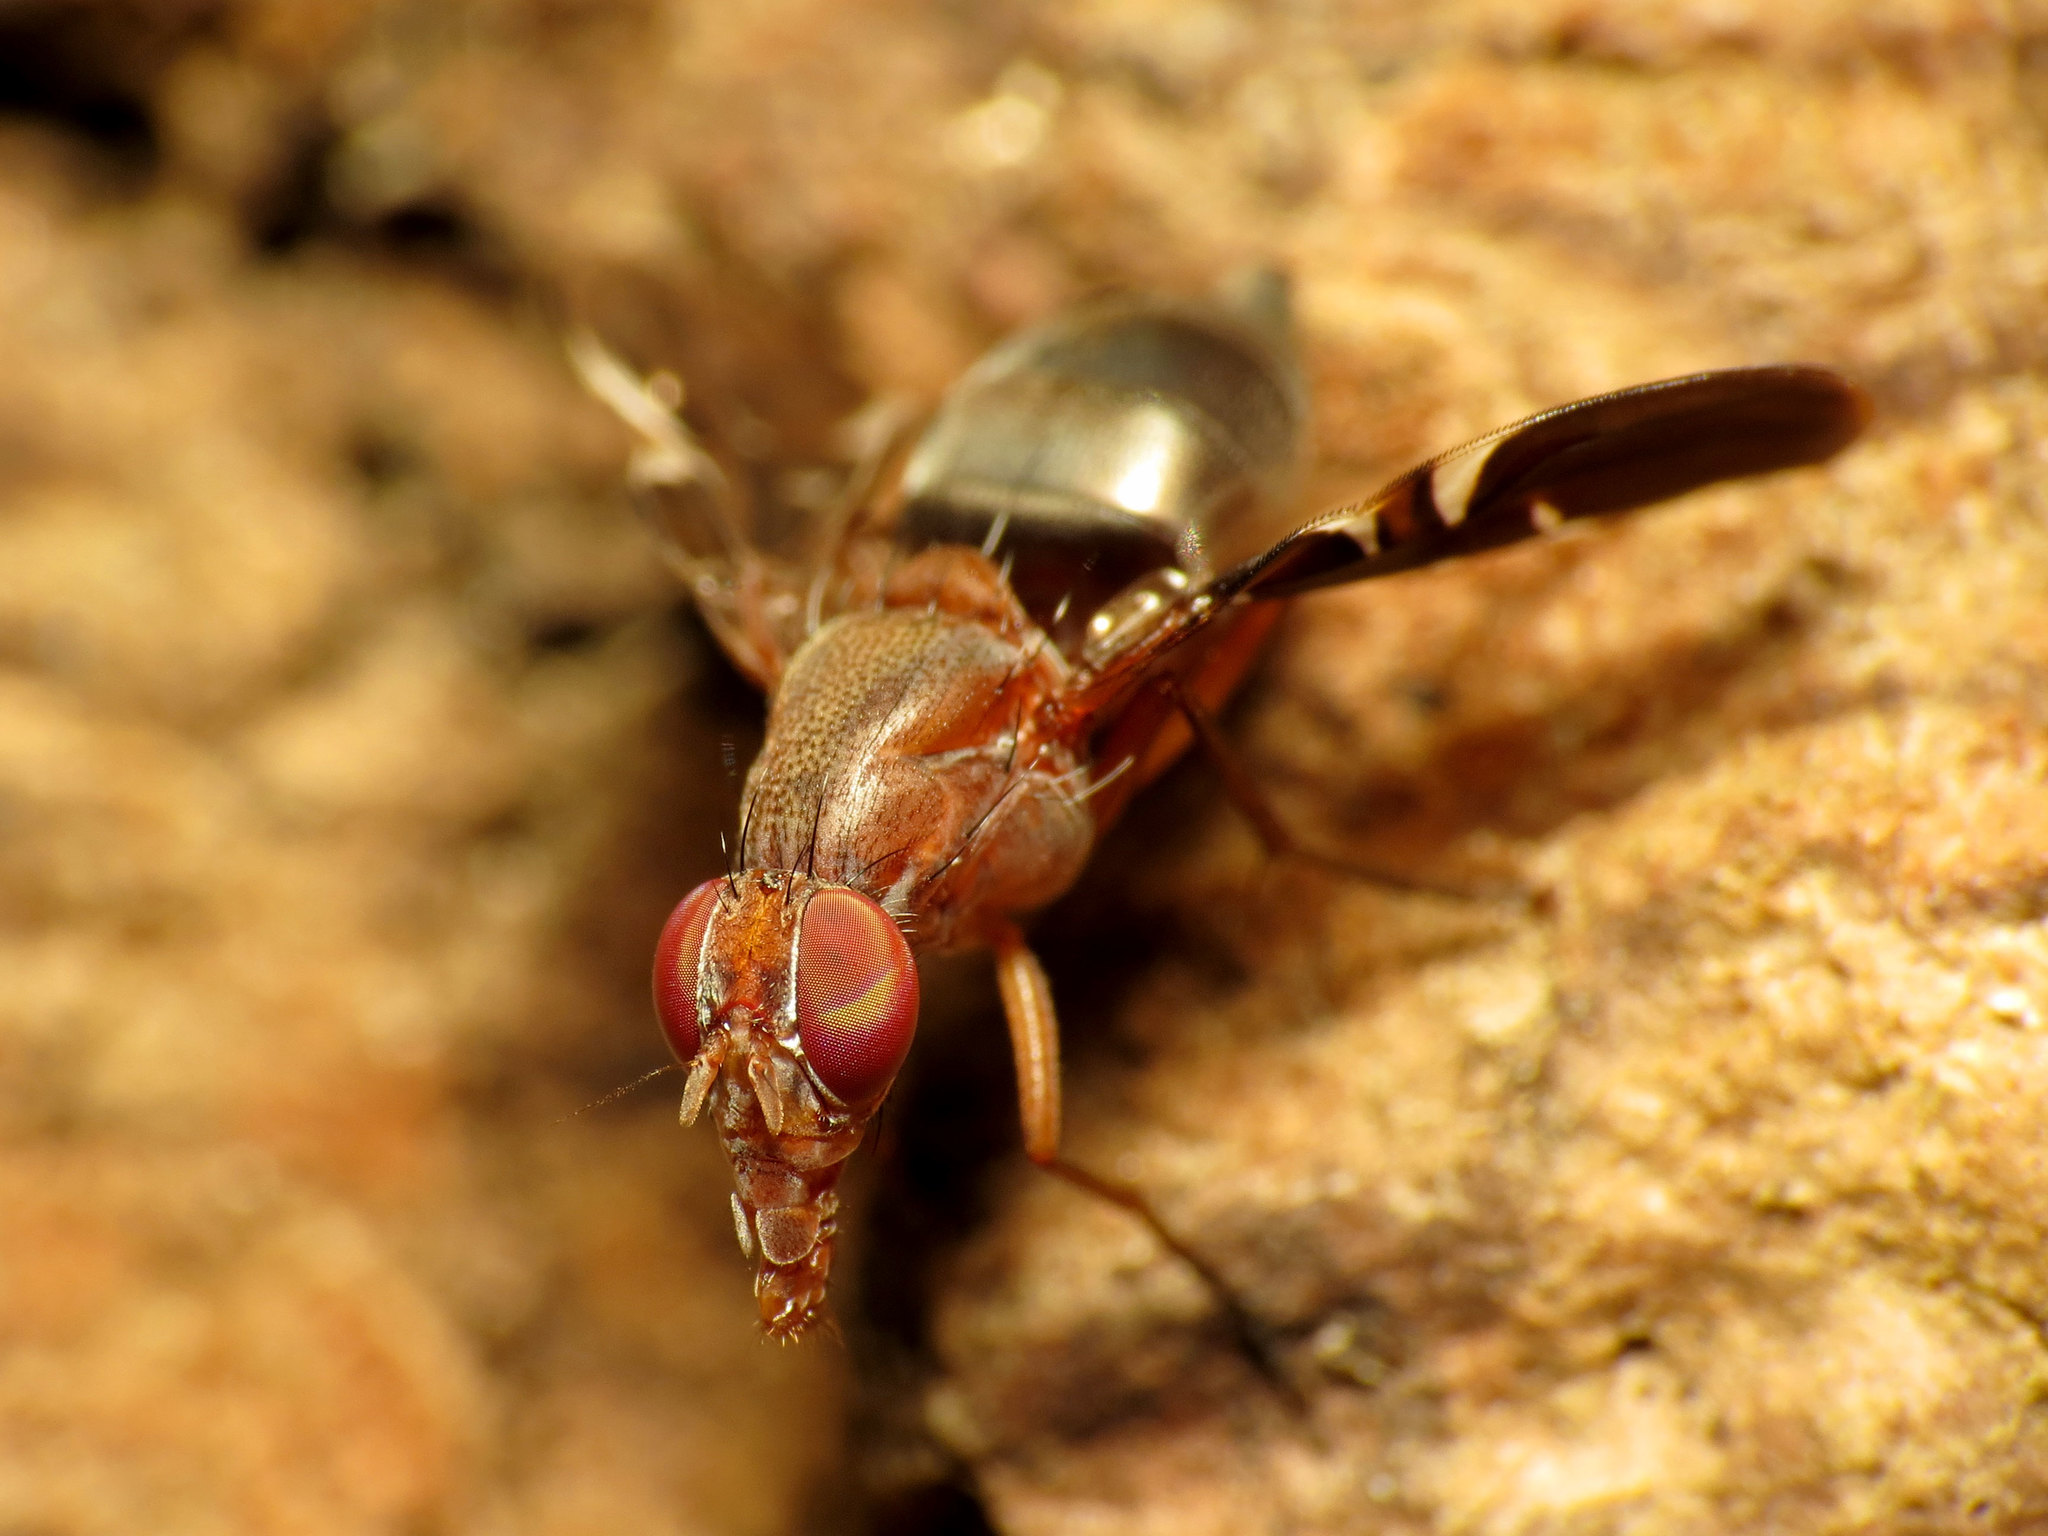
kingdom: Animalia
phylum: Arthropoda
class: Insecta
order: Diptera
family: Ulidiidae
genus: Delphinia
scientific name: Delphinia picta
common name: Common picture-winged fly
